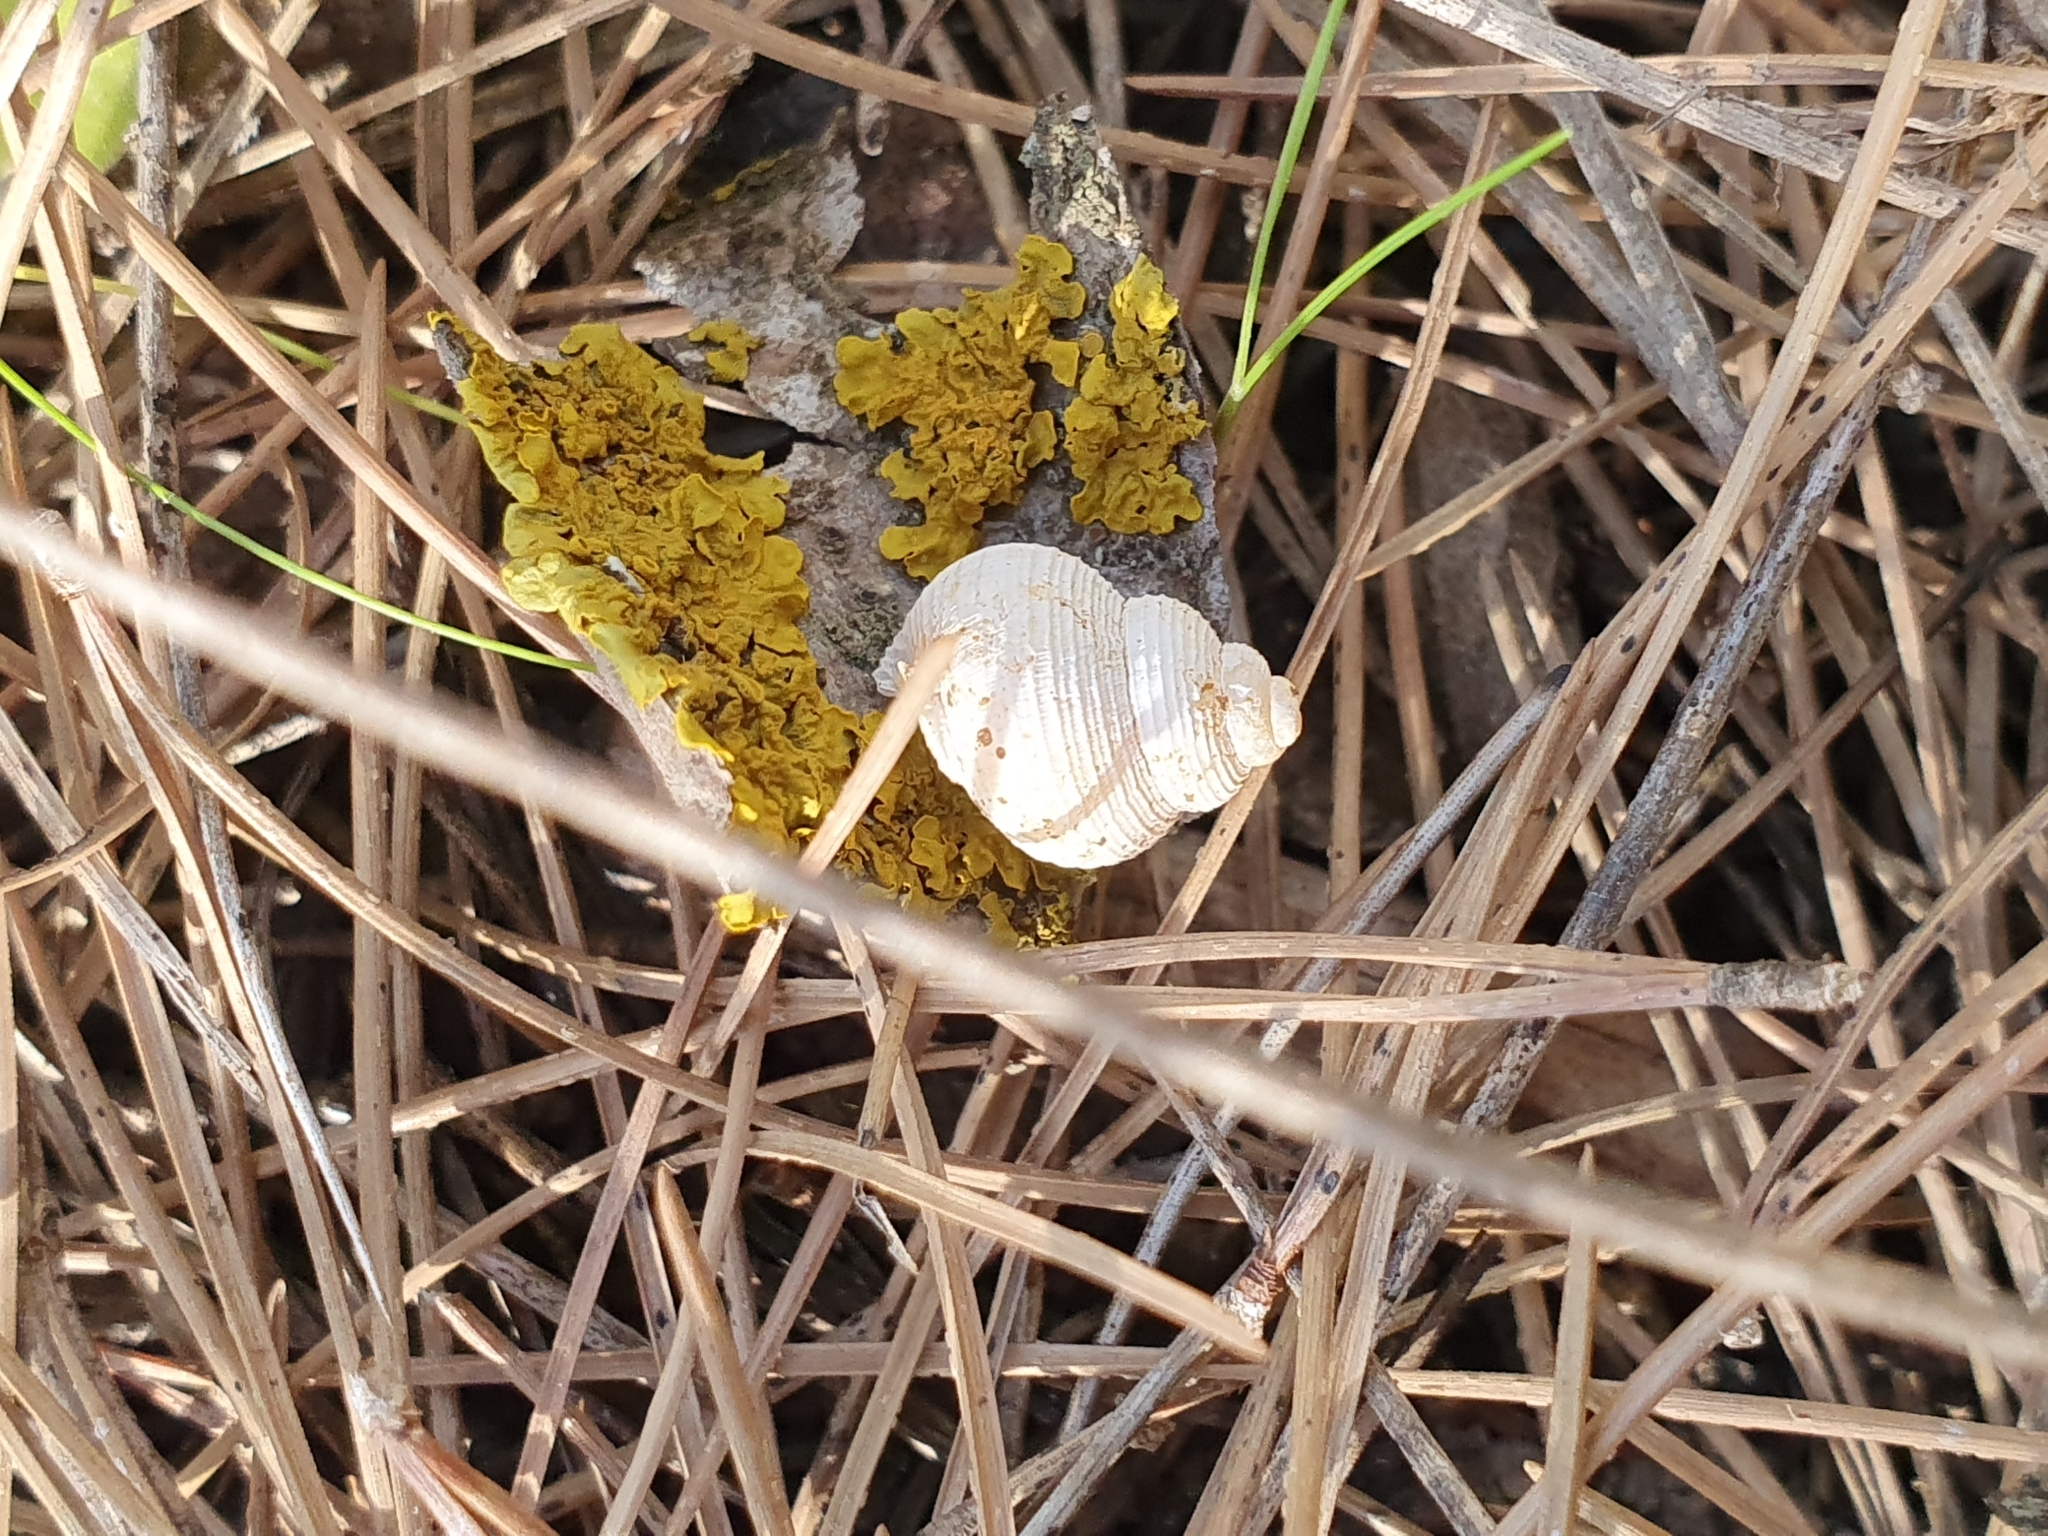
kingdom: Animalia
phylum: Mollusca
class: Gastropoda
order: Littorinimorpha
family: Pomatiidae
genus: Tudorella
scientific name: Tudorella sulcata
